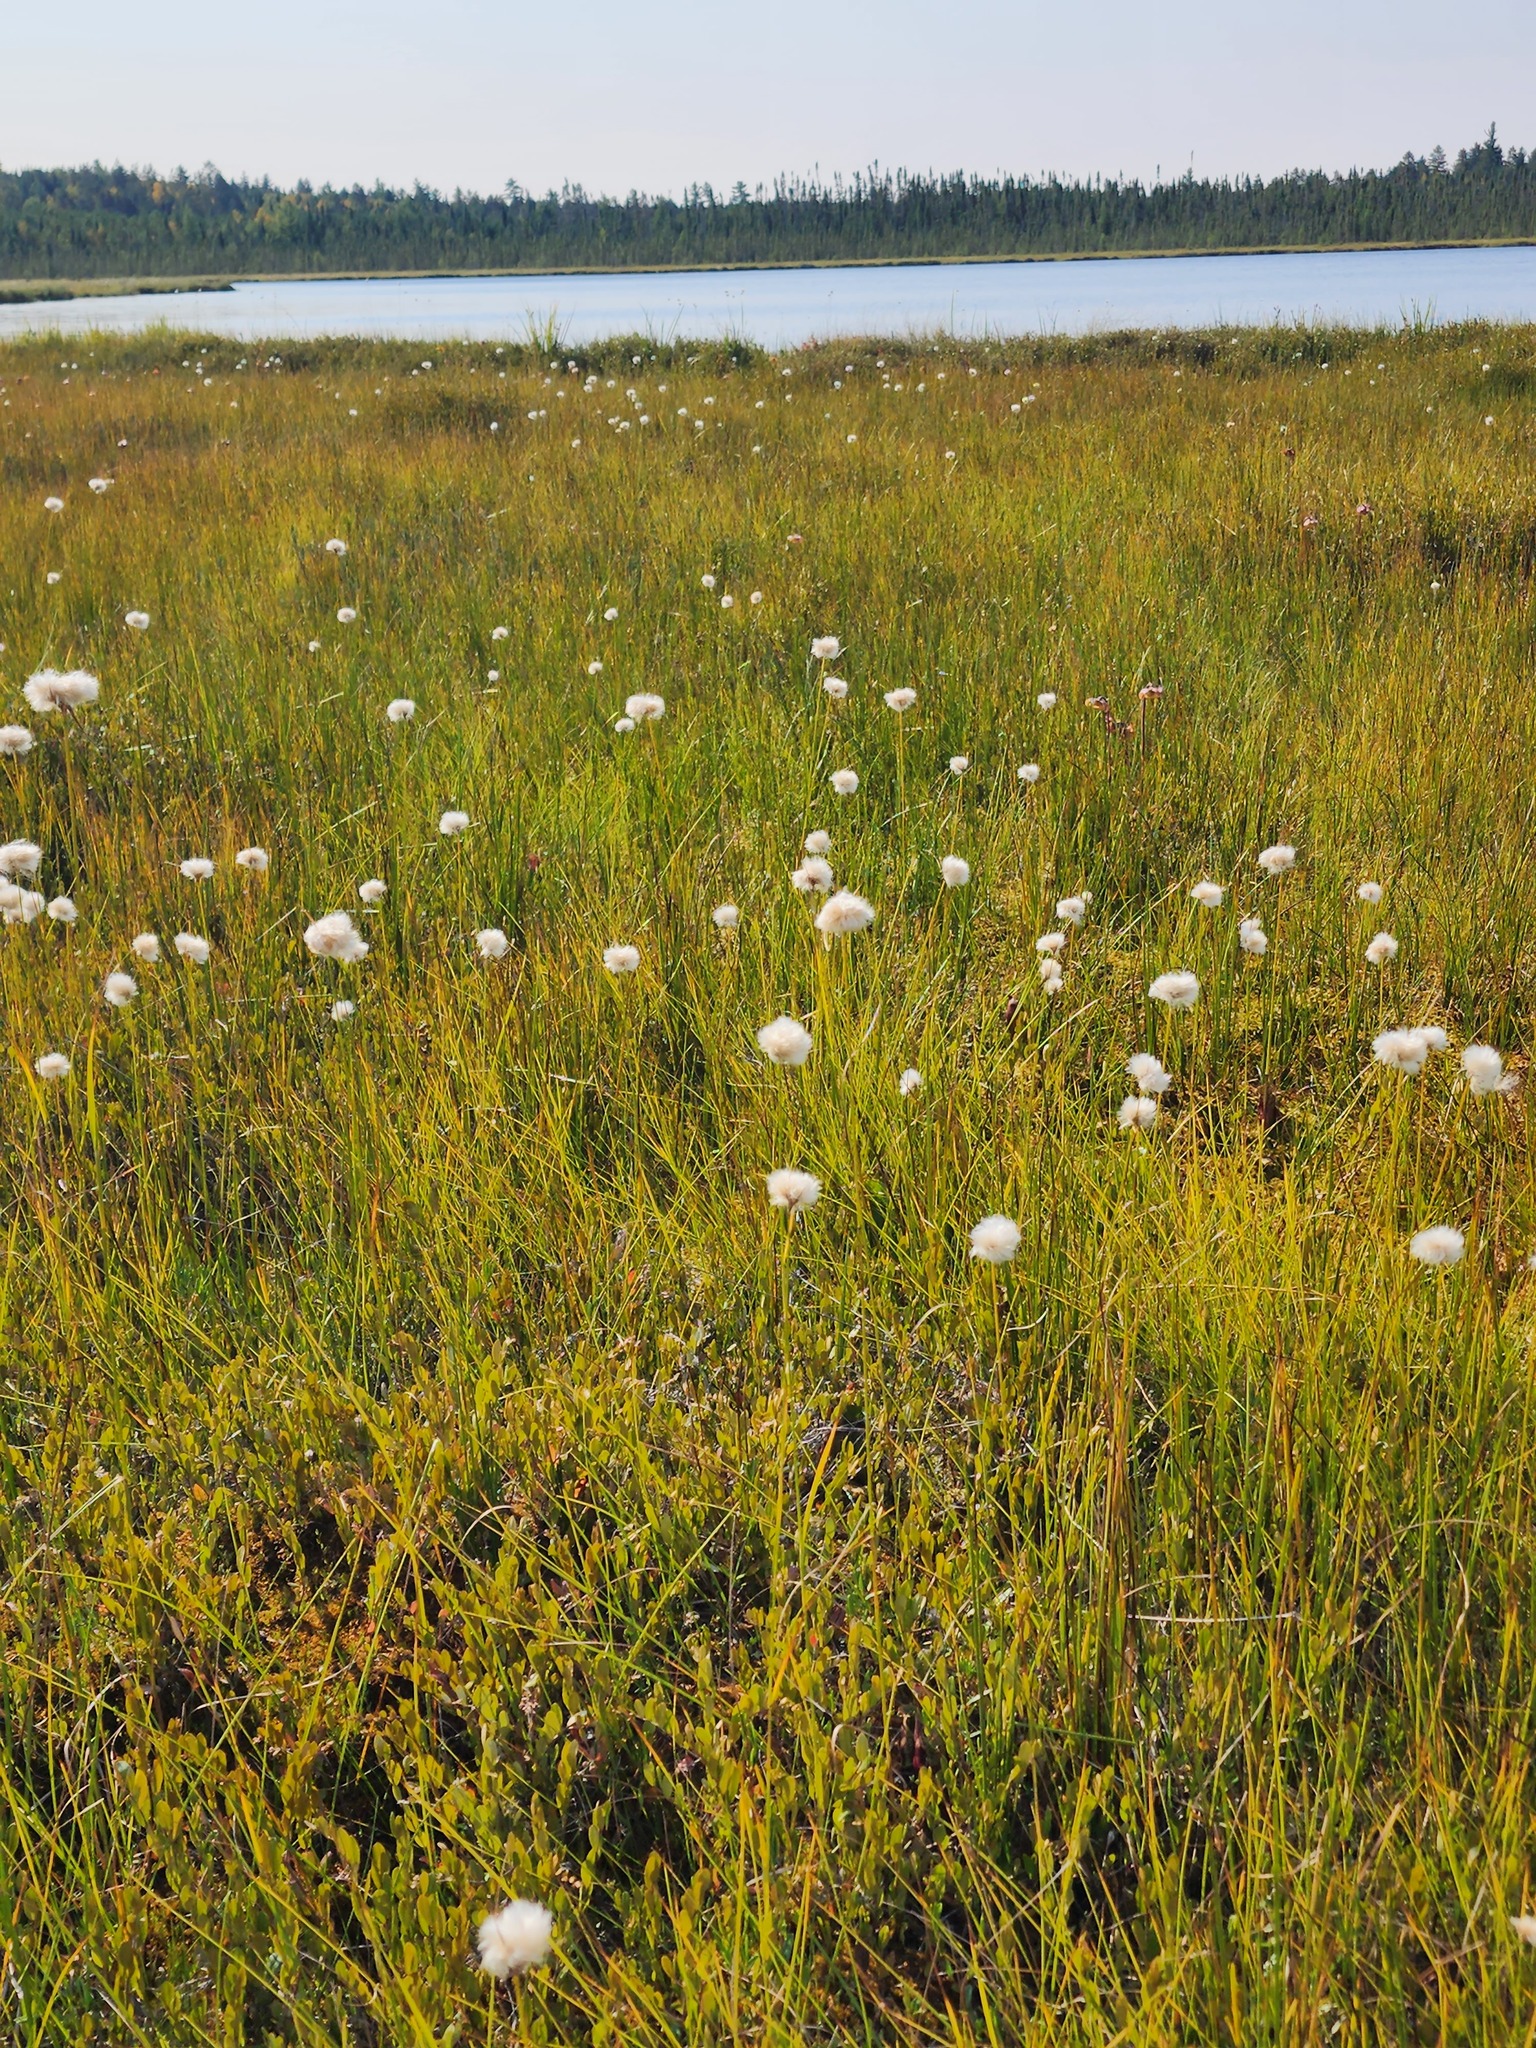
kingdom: Plantae
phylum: Tracheophyta
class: Liliopsida
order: Poales
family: Cyperaceae
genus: Eriophorum
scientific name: Eriophorum virginicum
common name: Tawny cottongrass
